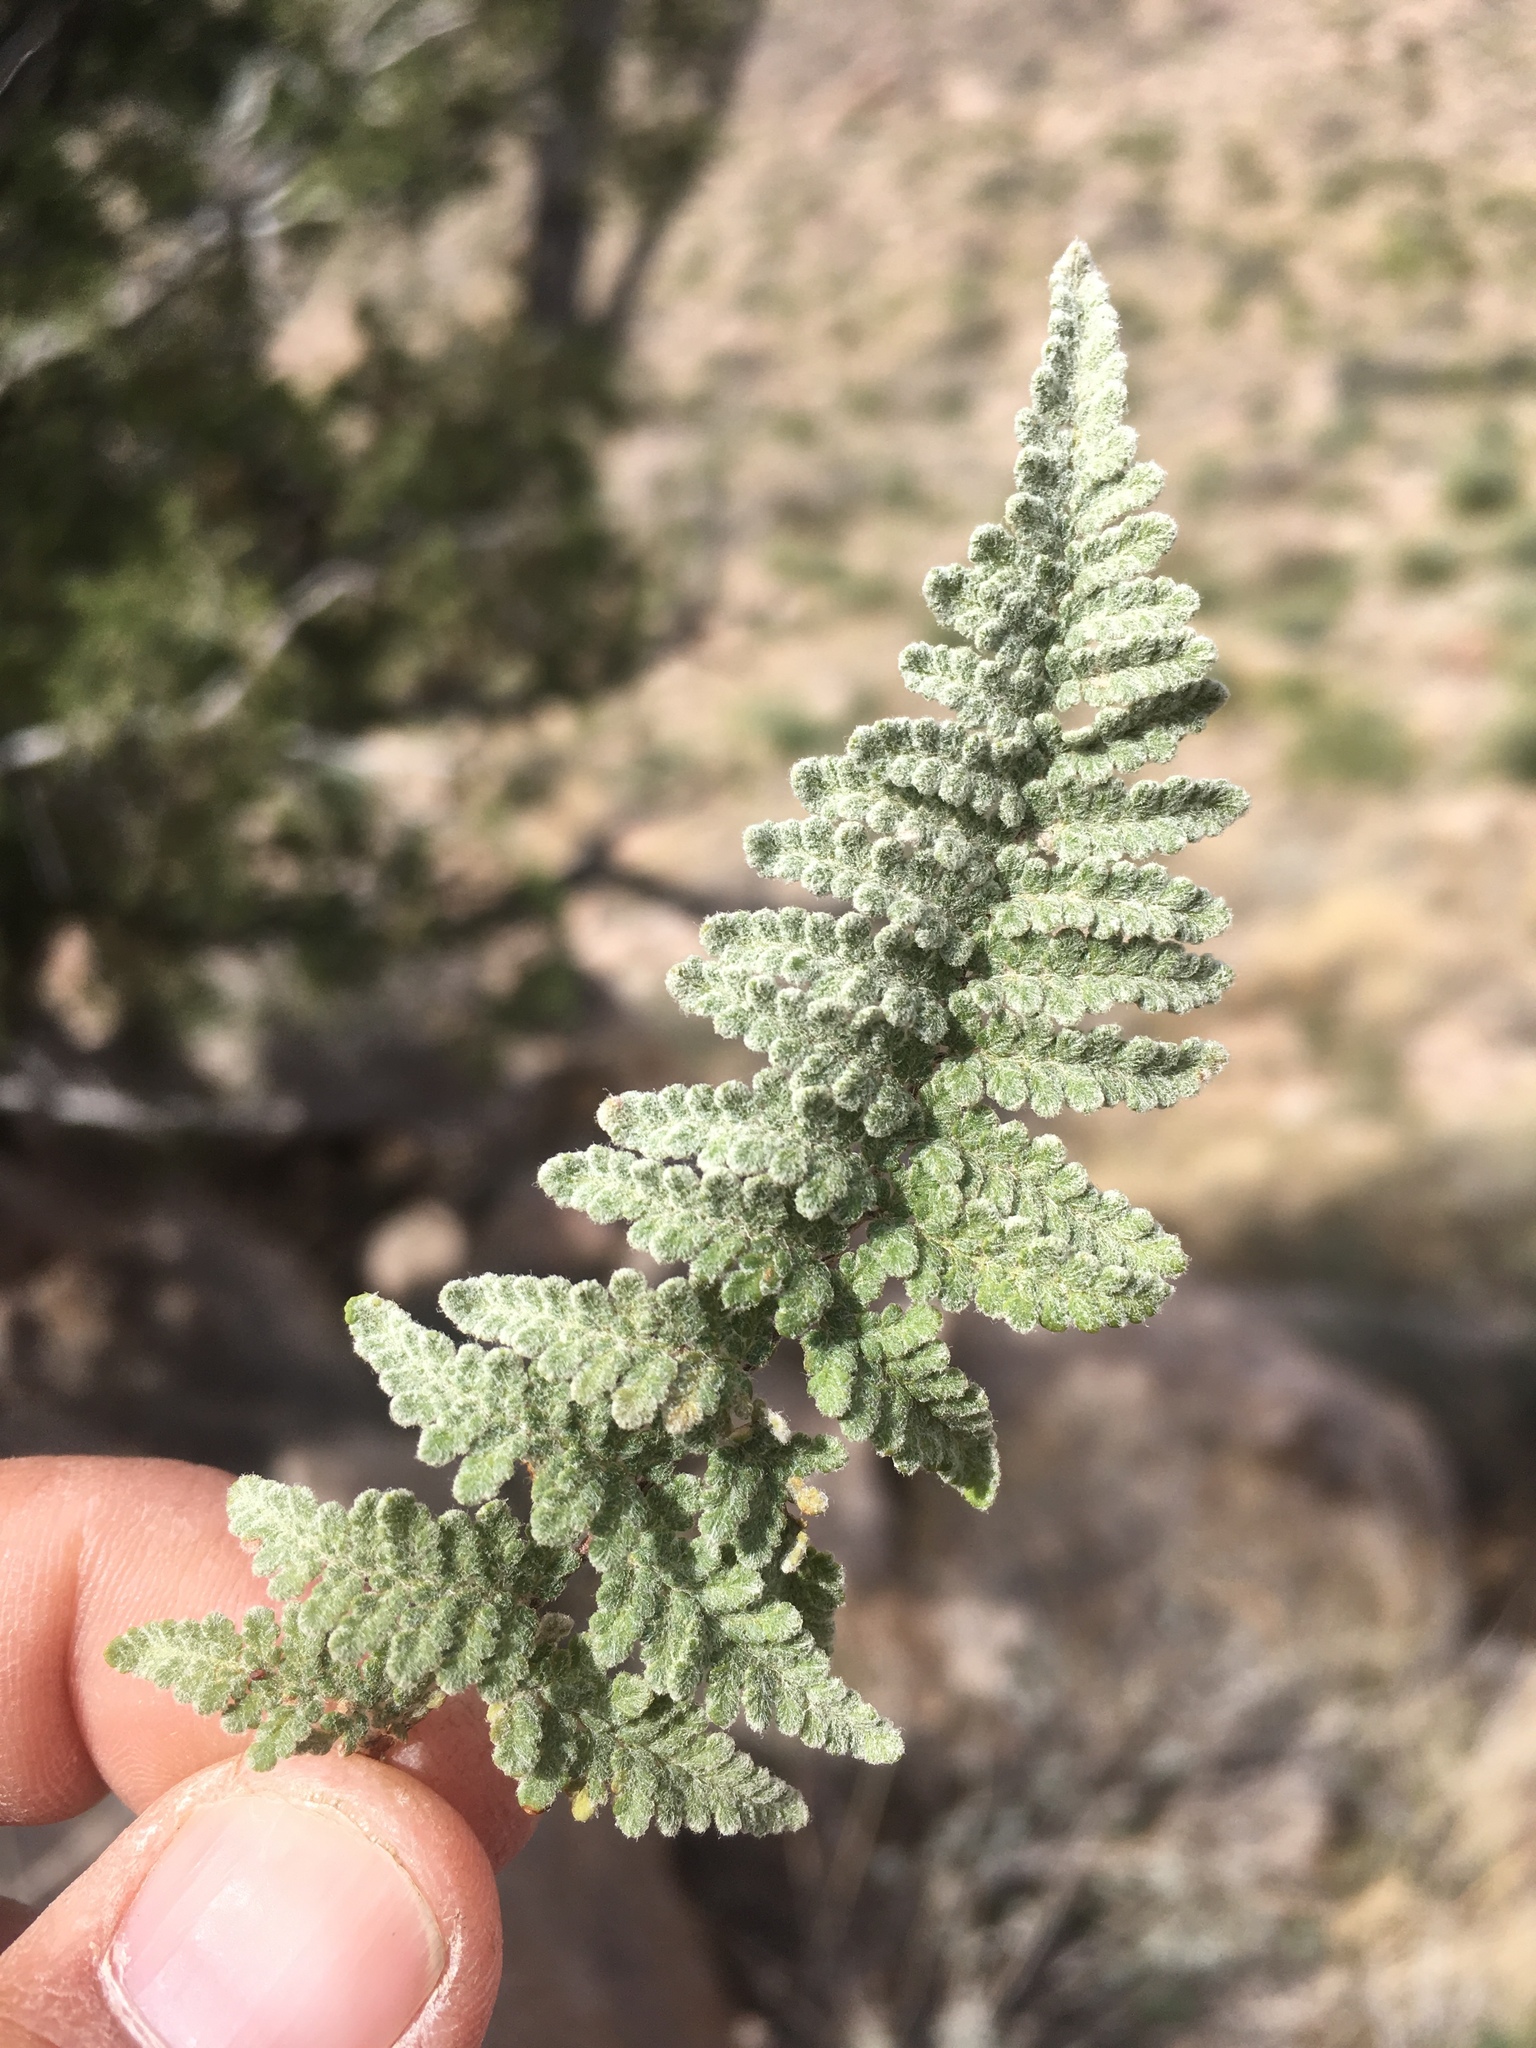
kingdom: Plantae
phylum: Tracheophyta
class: Polypodiopsida
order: Polypodiales
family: Pteridaceae
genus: Myriopteris
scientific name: Myriopteris rufa
